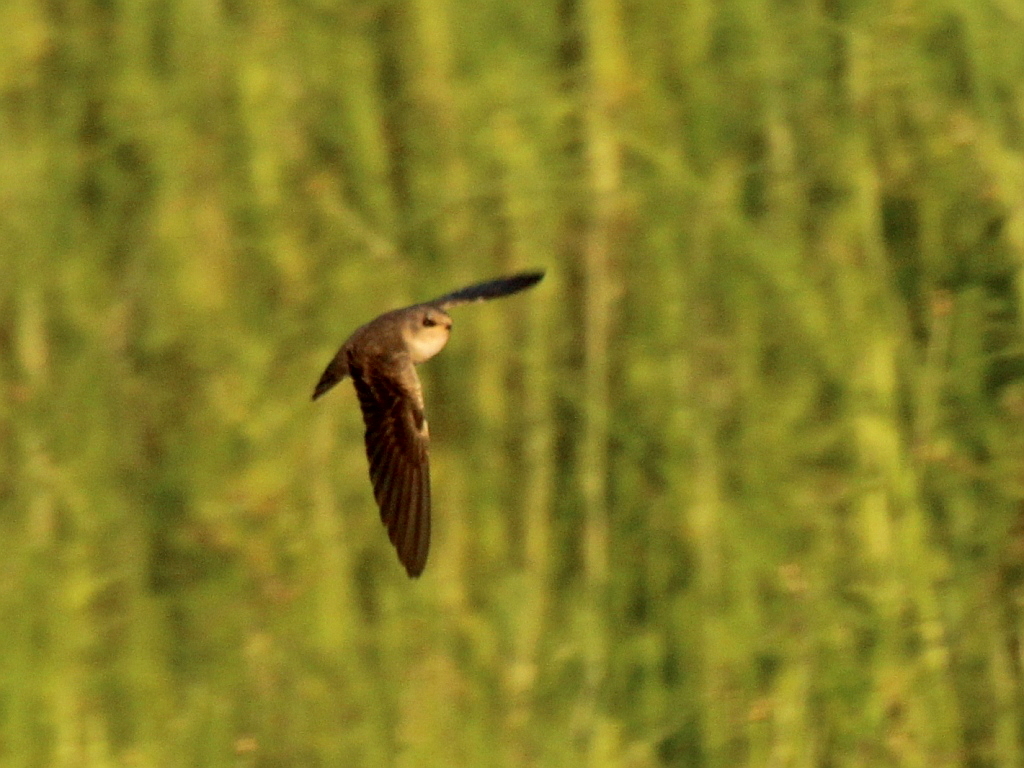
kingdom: Animalia
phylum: Chordata
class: Aves
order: Passeriformes
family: Hirundinidae
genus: Riparia
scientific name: Riparia diluta
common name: Pale martin
